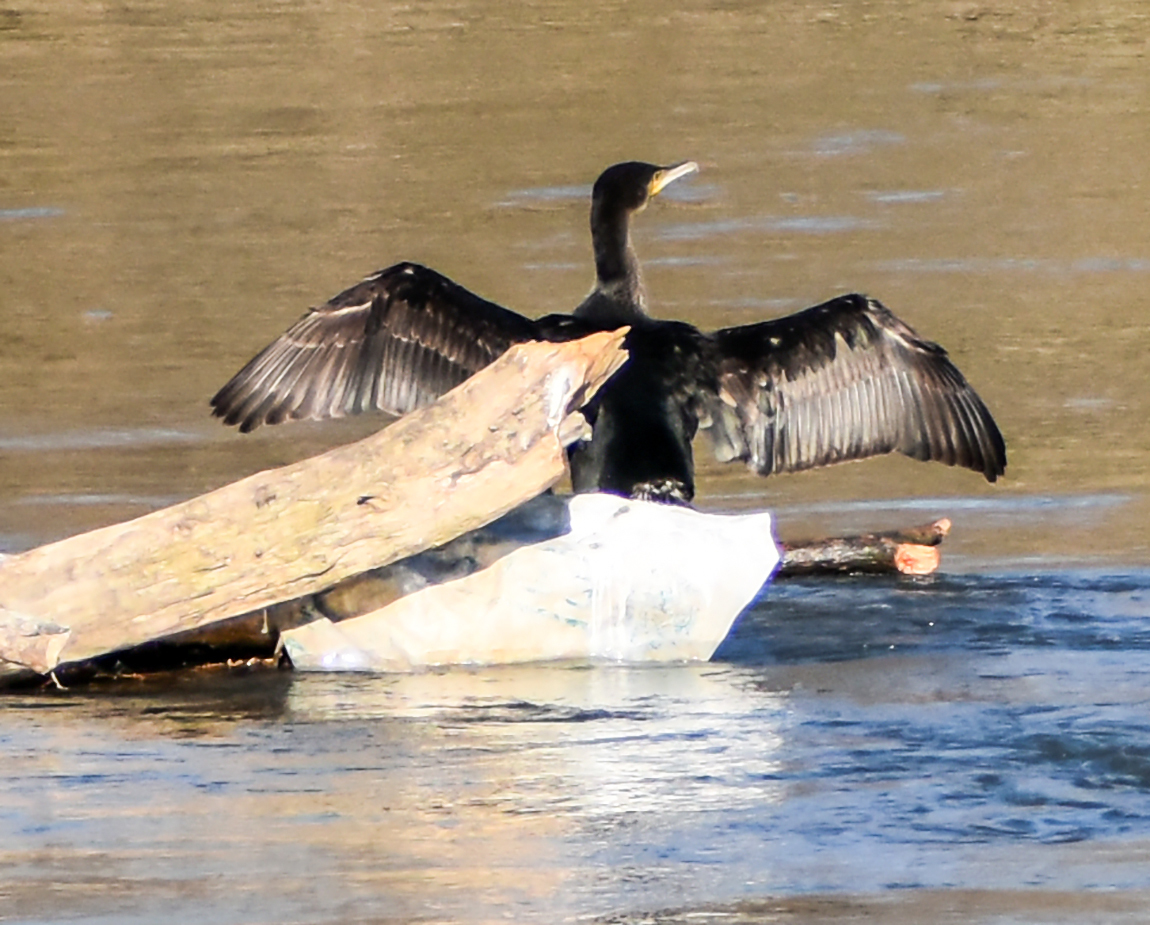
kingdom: Animalia
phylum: Chordata
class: Aves
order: Suliformes
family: Phalacrocoracidae
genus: Phalacrocorax
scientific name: Phalacrocorax carbo
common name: Great cormorant
